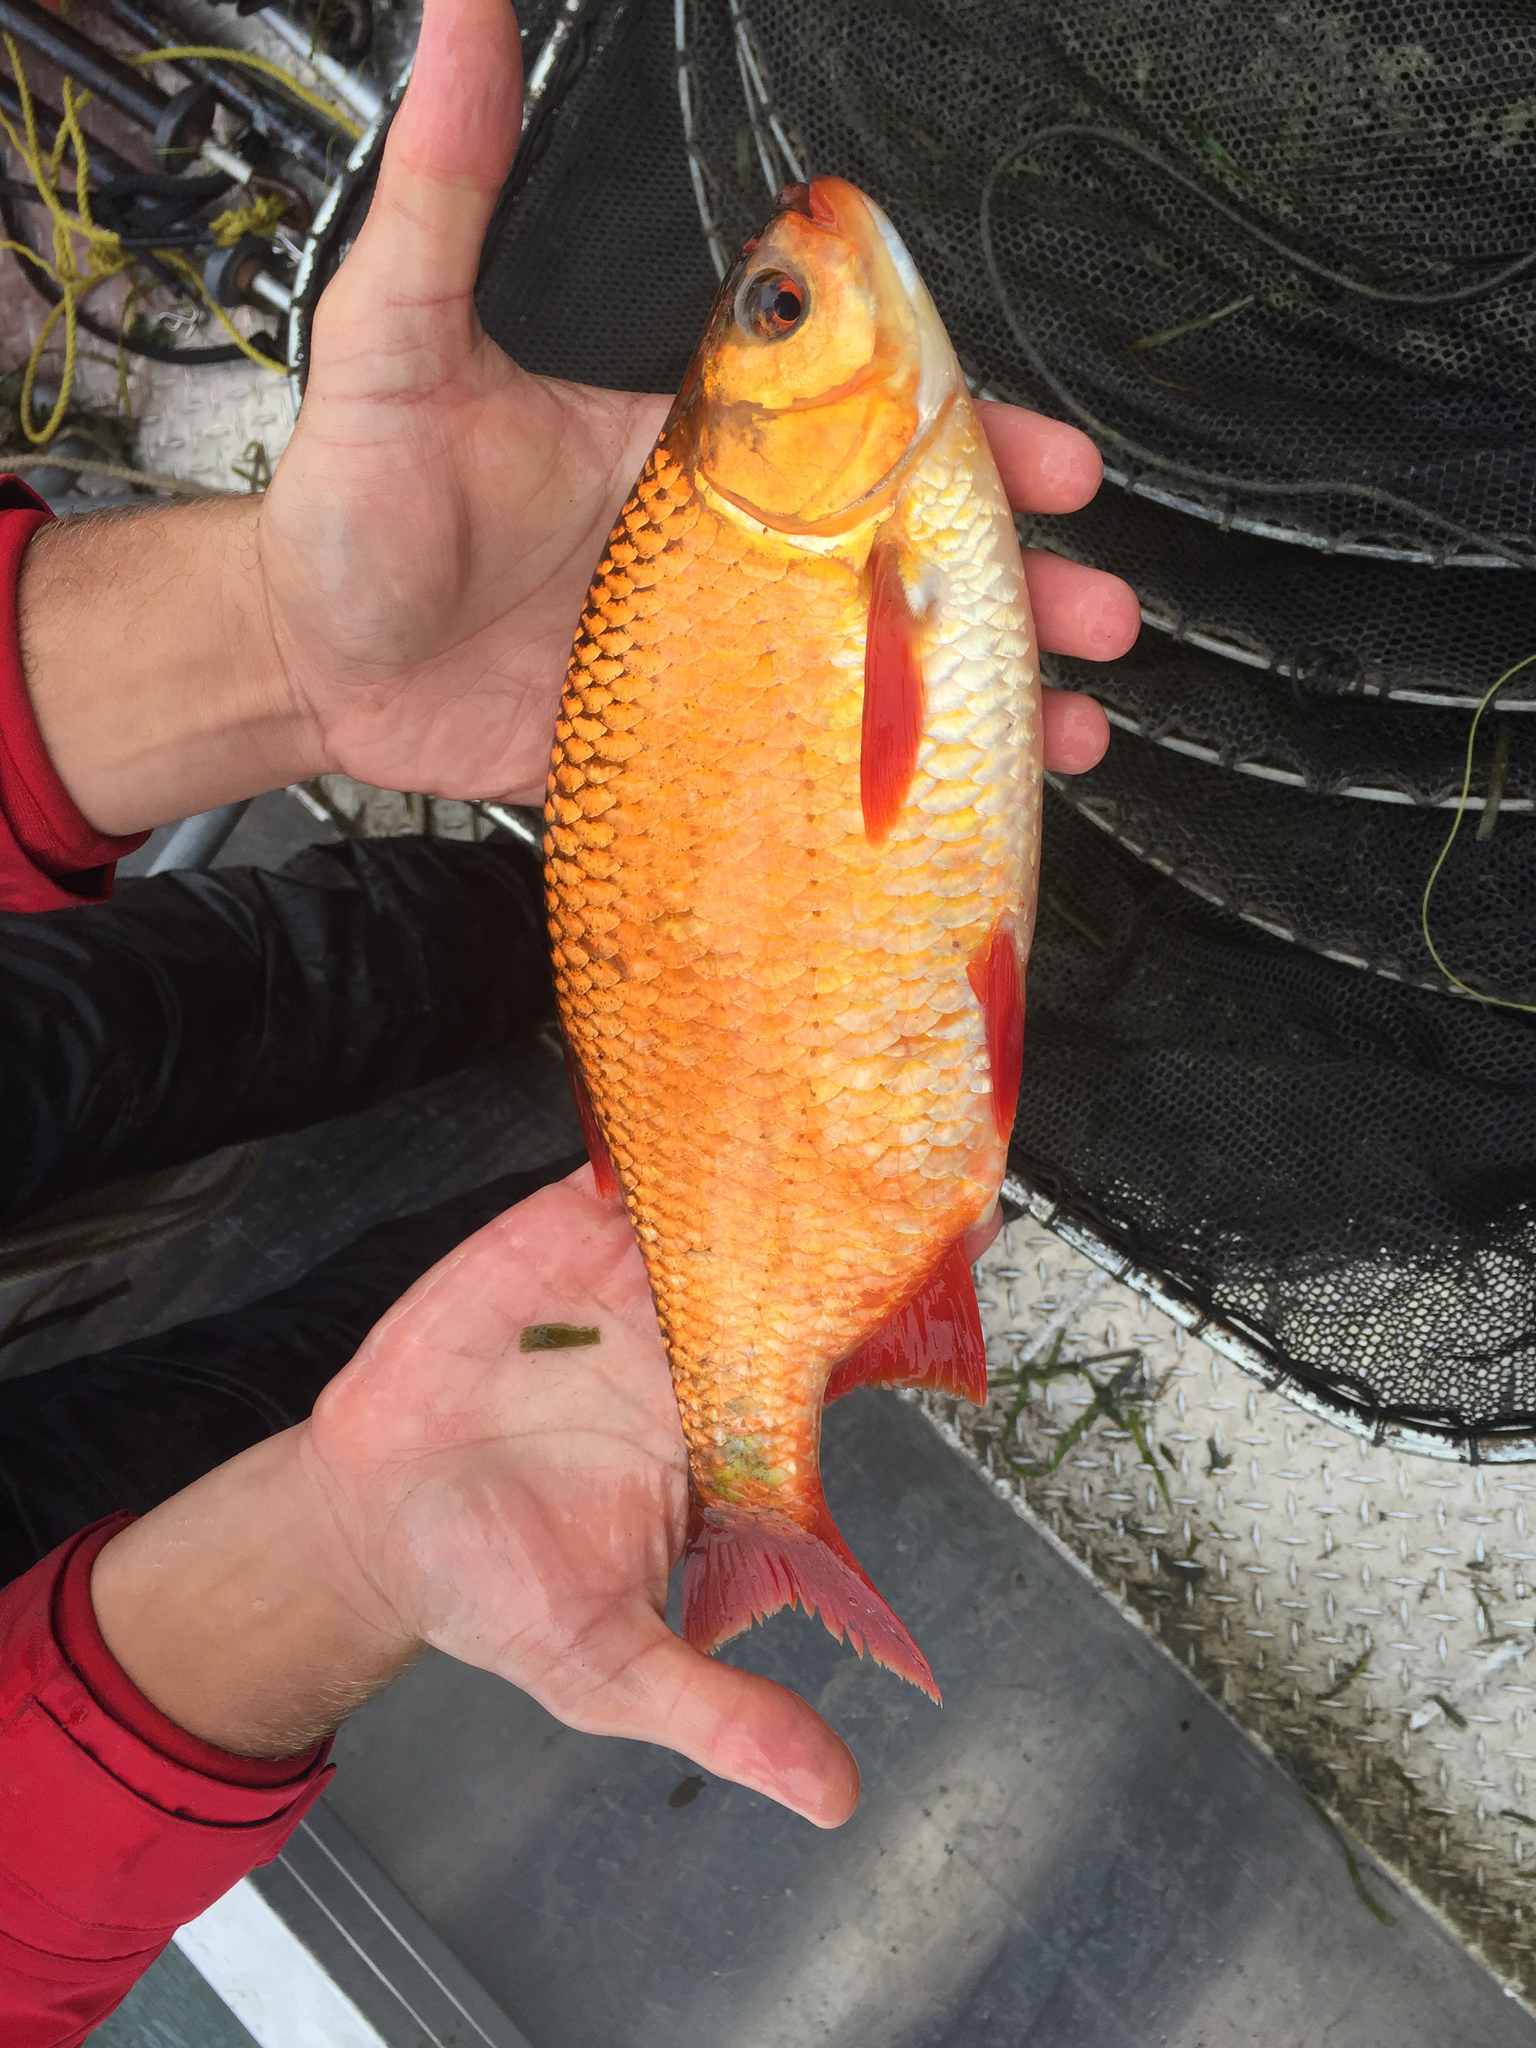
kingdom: Animalia
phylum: Chordata
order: Cypriniformes
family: Cyprinidae
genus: Scardinius
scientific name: Scardinius erythrophthalmus
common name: Rudd
